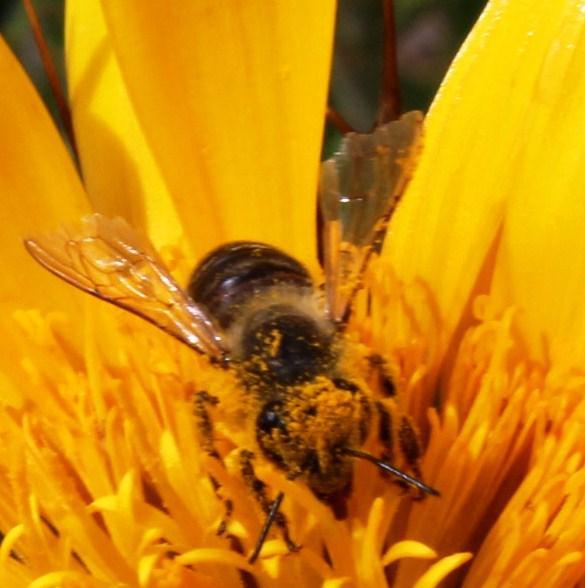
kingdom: Animalia
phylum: Arthropoda
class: Insecta
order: Hymenoptera
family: Apidae
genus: Apis
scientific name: Apis mellifera
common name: Honey bee
